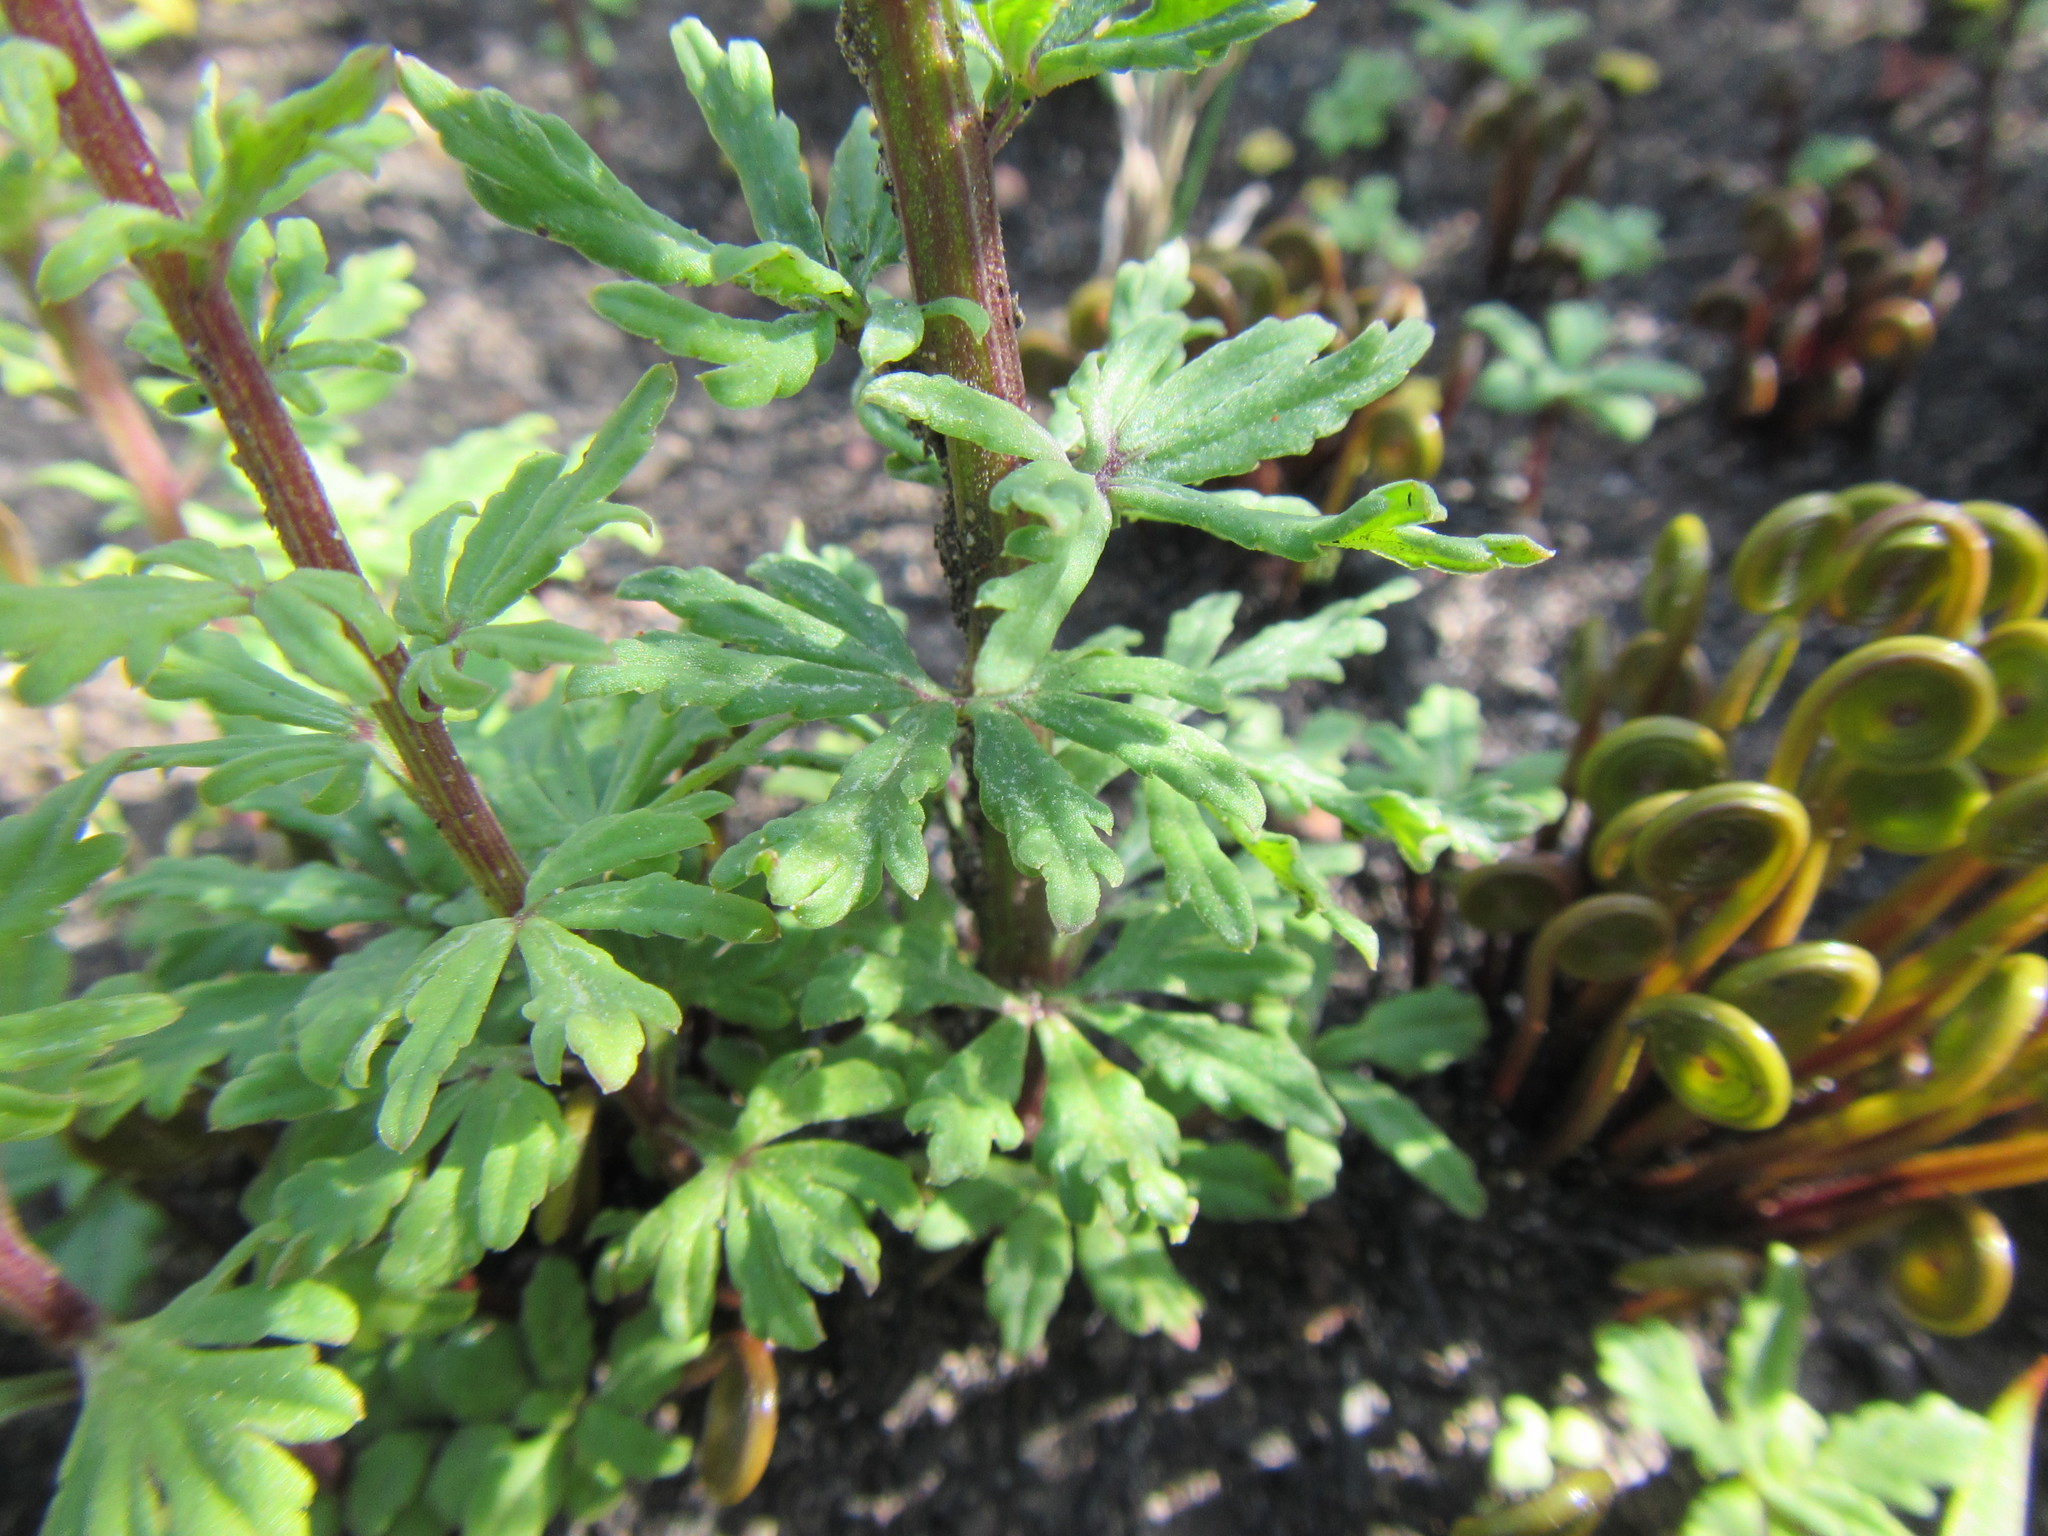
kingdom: Plantae
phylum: Tracheophyta
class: Magnoliopsida
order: Asterales
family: Campanulaceae
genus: Cyphia
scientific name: Cyphia bulbosa
